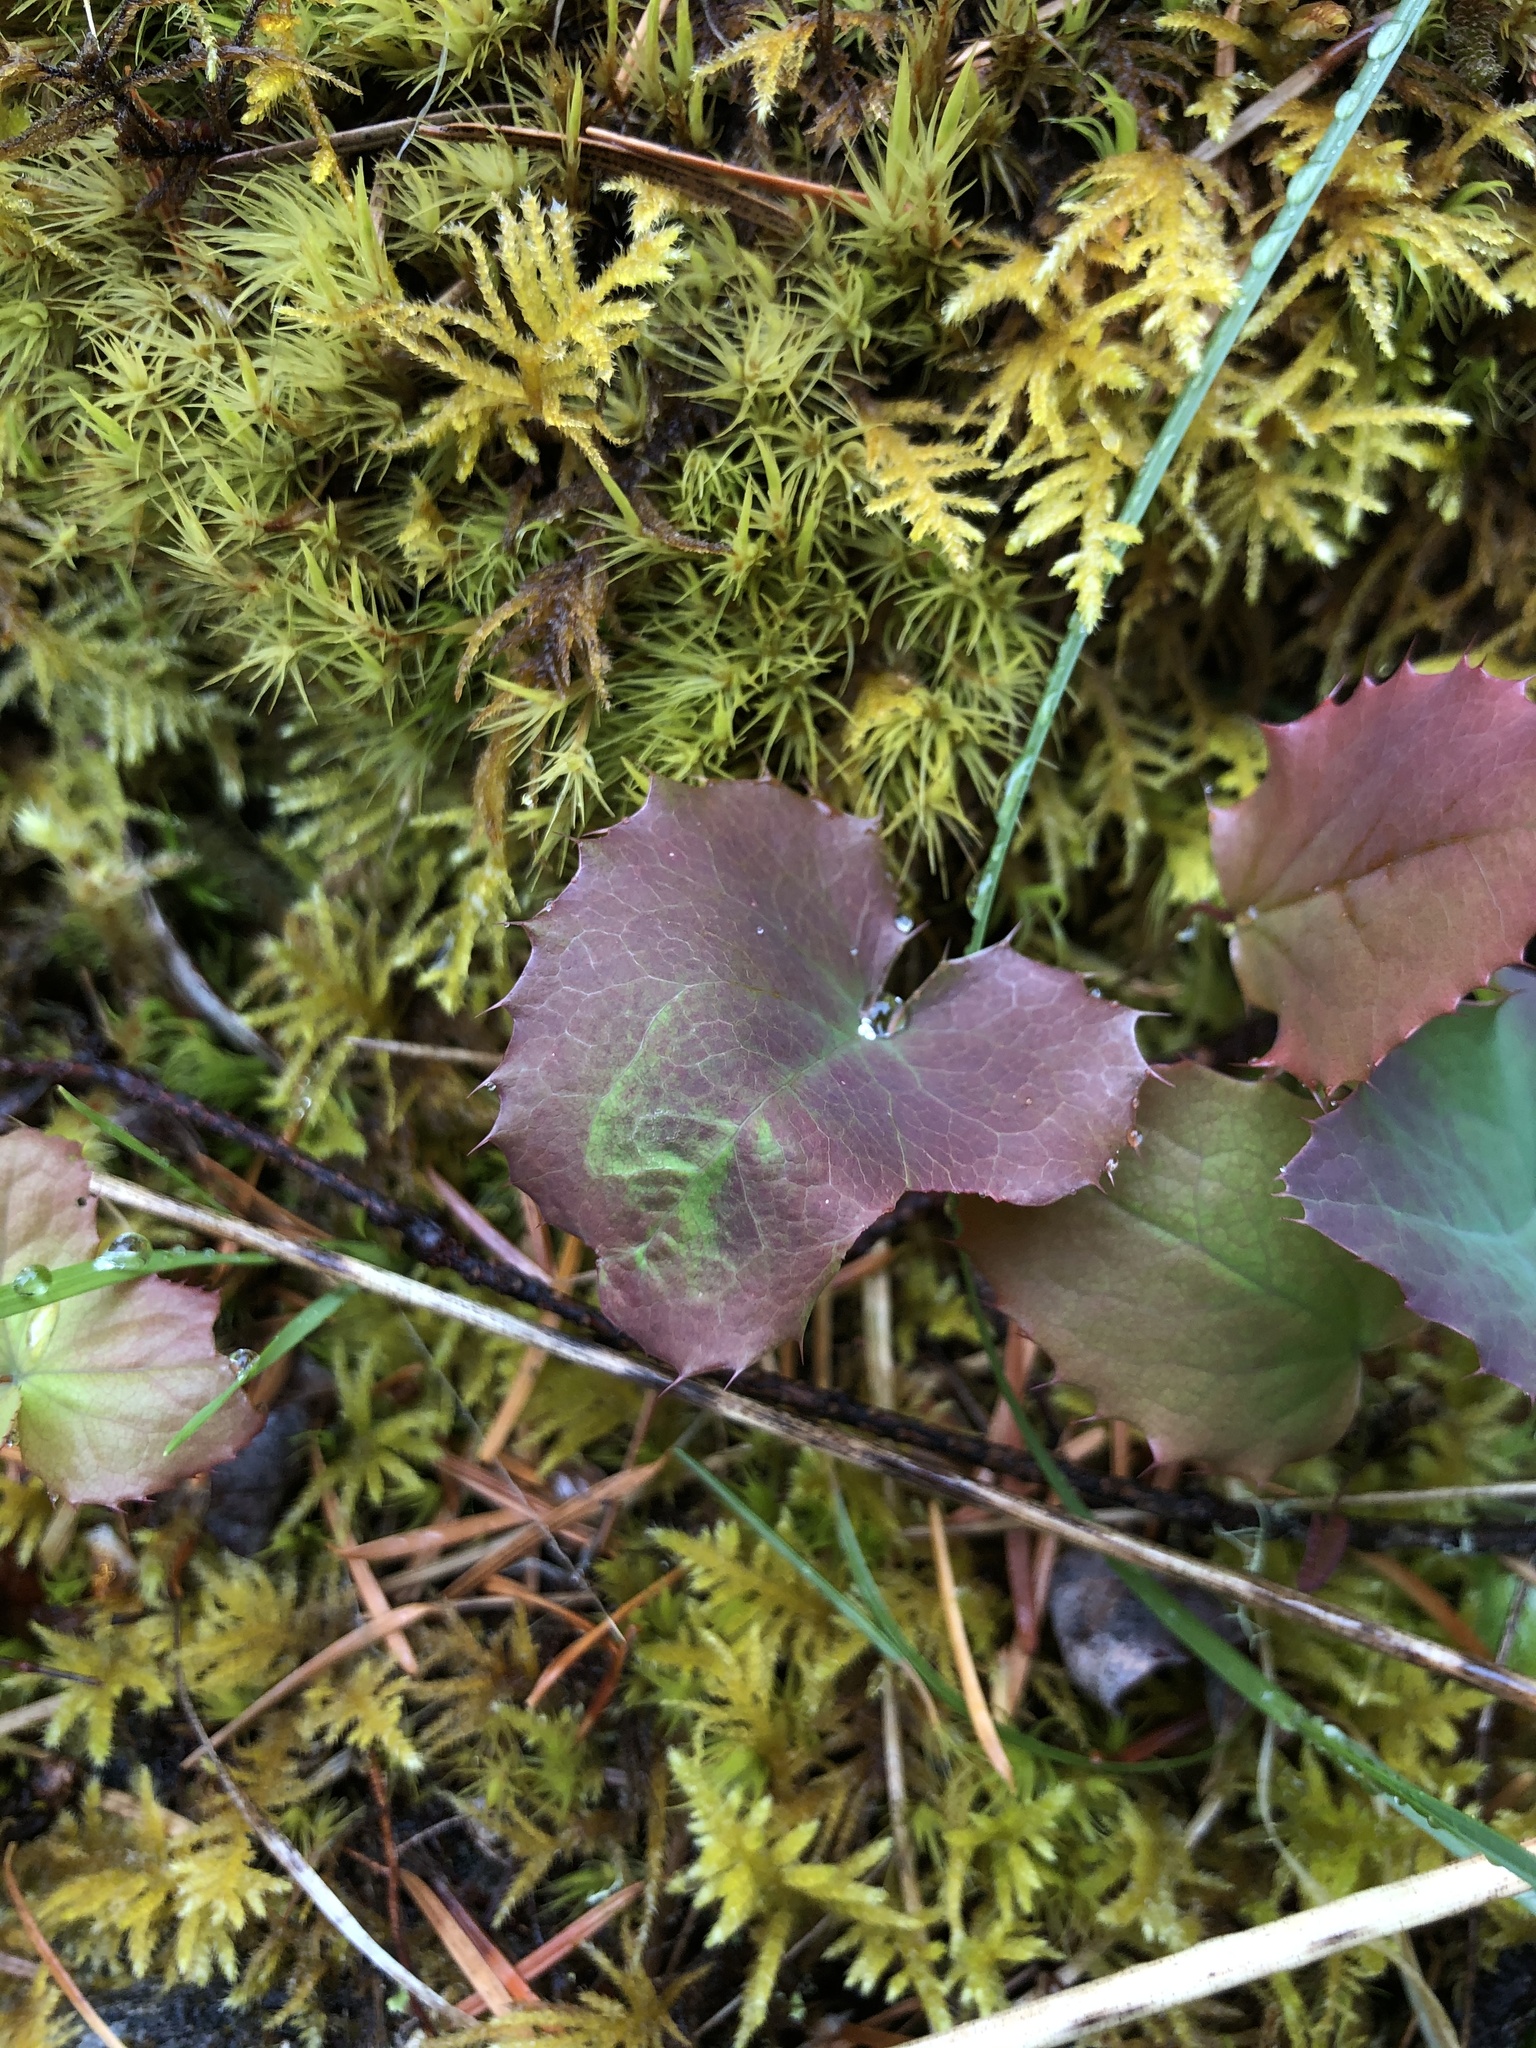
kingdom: Plantae
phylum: Tracheophyta
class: Magnoliopsida
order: Ranunculales
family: Berberidaceae
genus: Mahonia
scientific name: Mahonia aquifolium
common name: Oregon-grape
